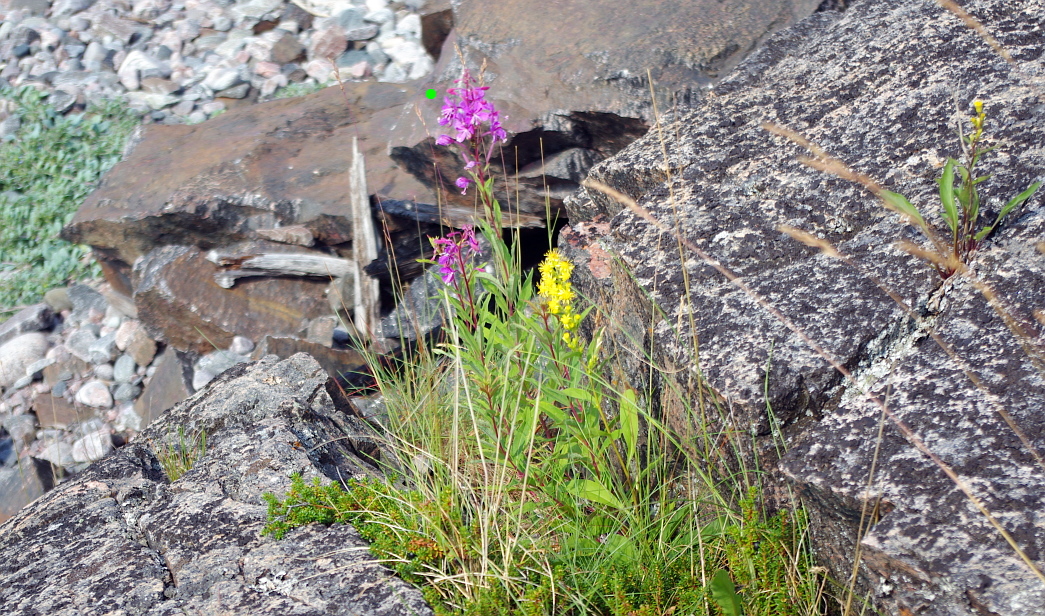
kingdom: Plantae
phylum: Tracheophyta
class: Magnoliopsida
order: Myrtales
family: Onagraceae
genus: Chamaenerion
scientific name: Chamaenerion angustifolium
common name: Fireweed
